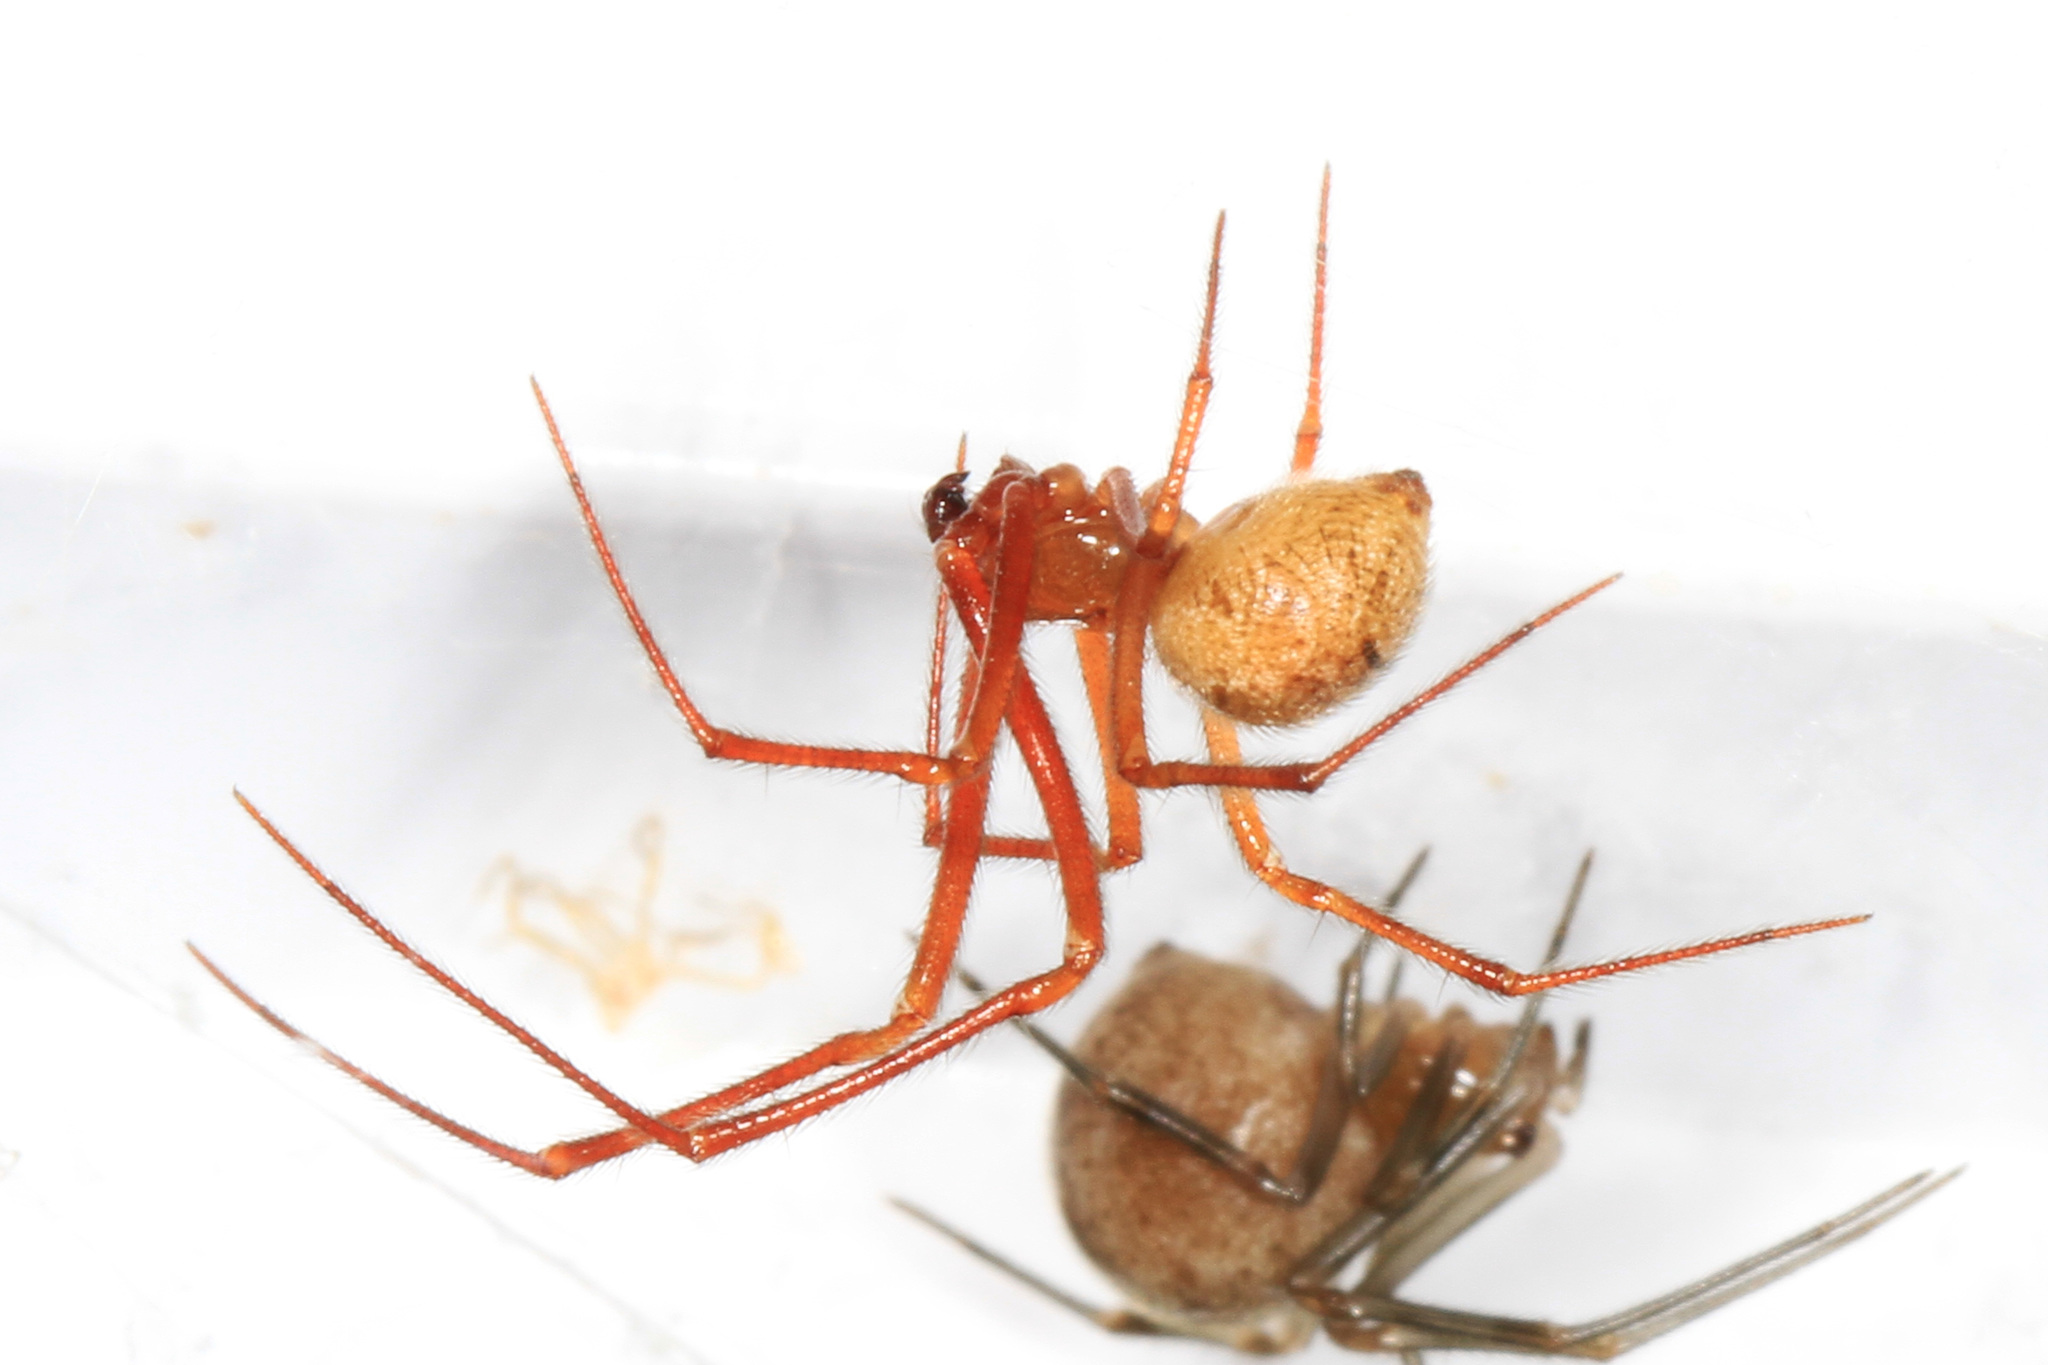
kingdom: Animalia
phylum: Arthropoda
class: Arachnida
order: Araneae
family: Theridiidae
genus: Parasteatoda
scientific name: Parasteatoda tepidariorum
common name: Common house spider
